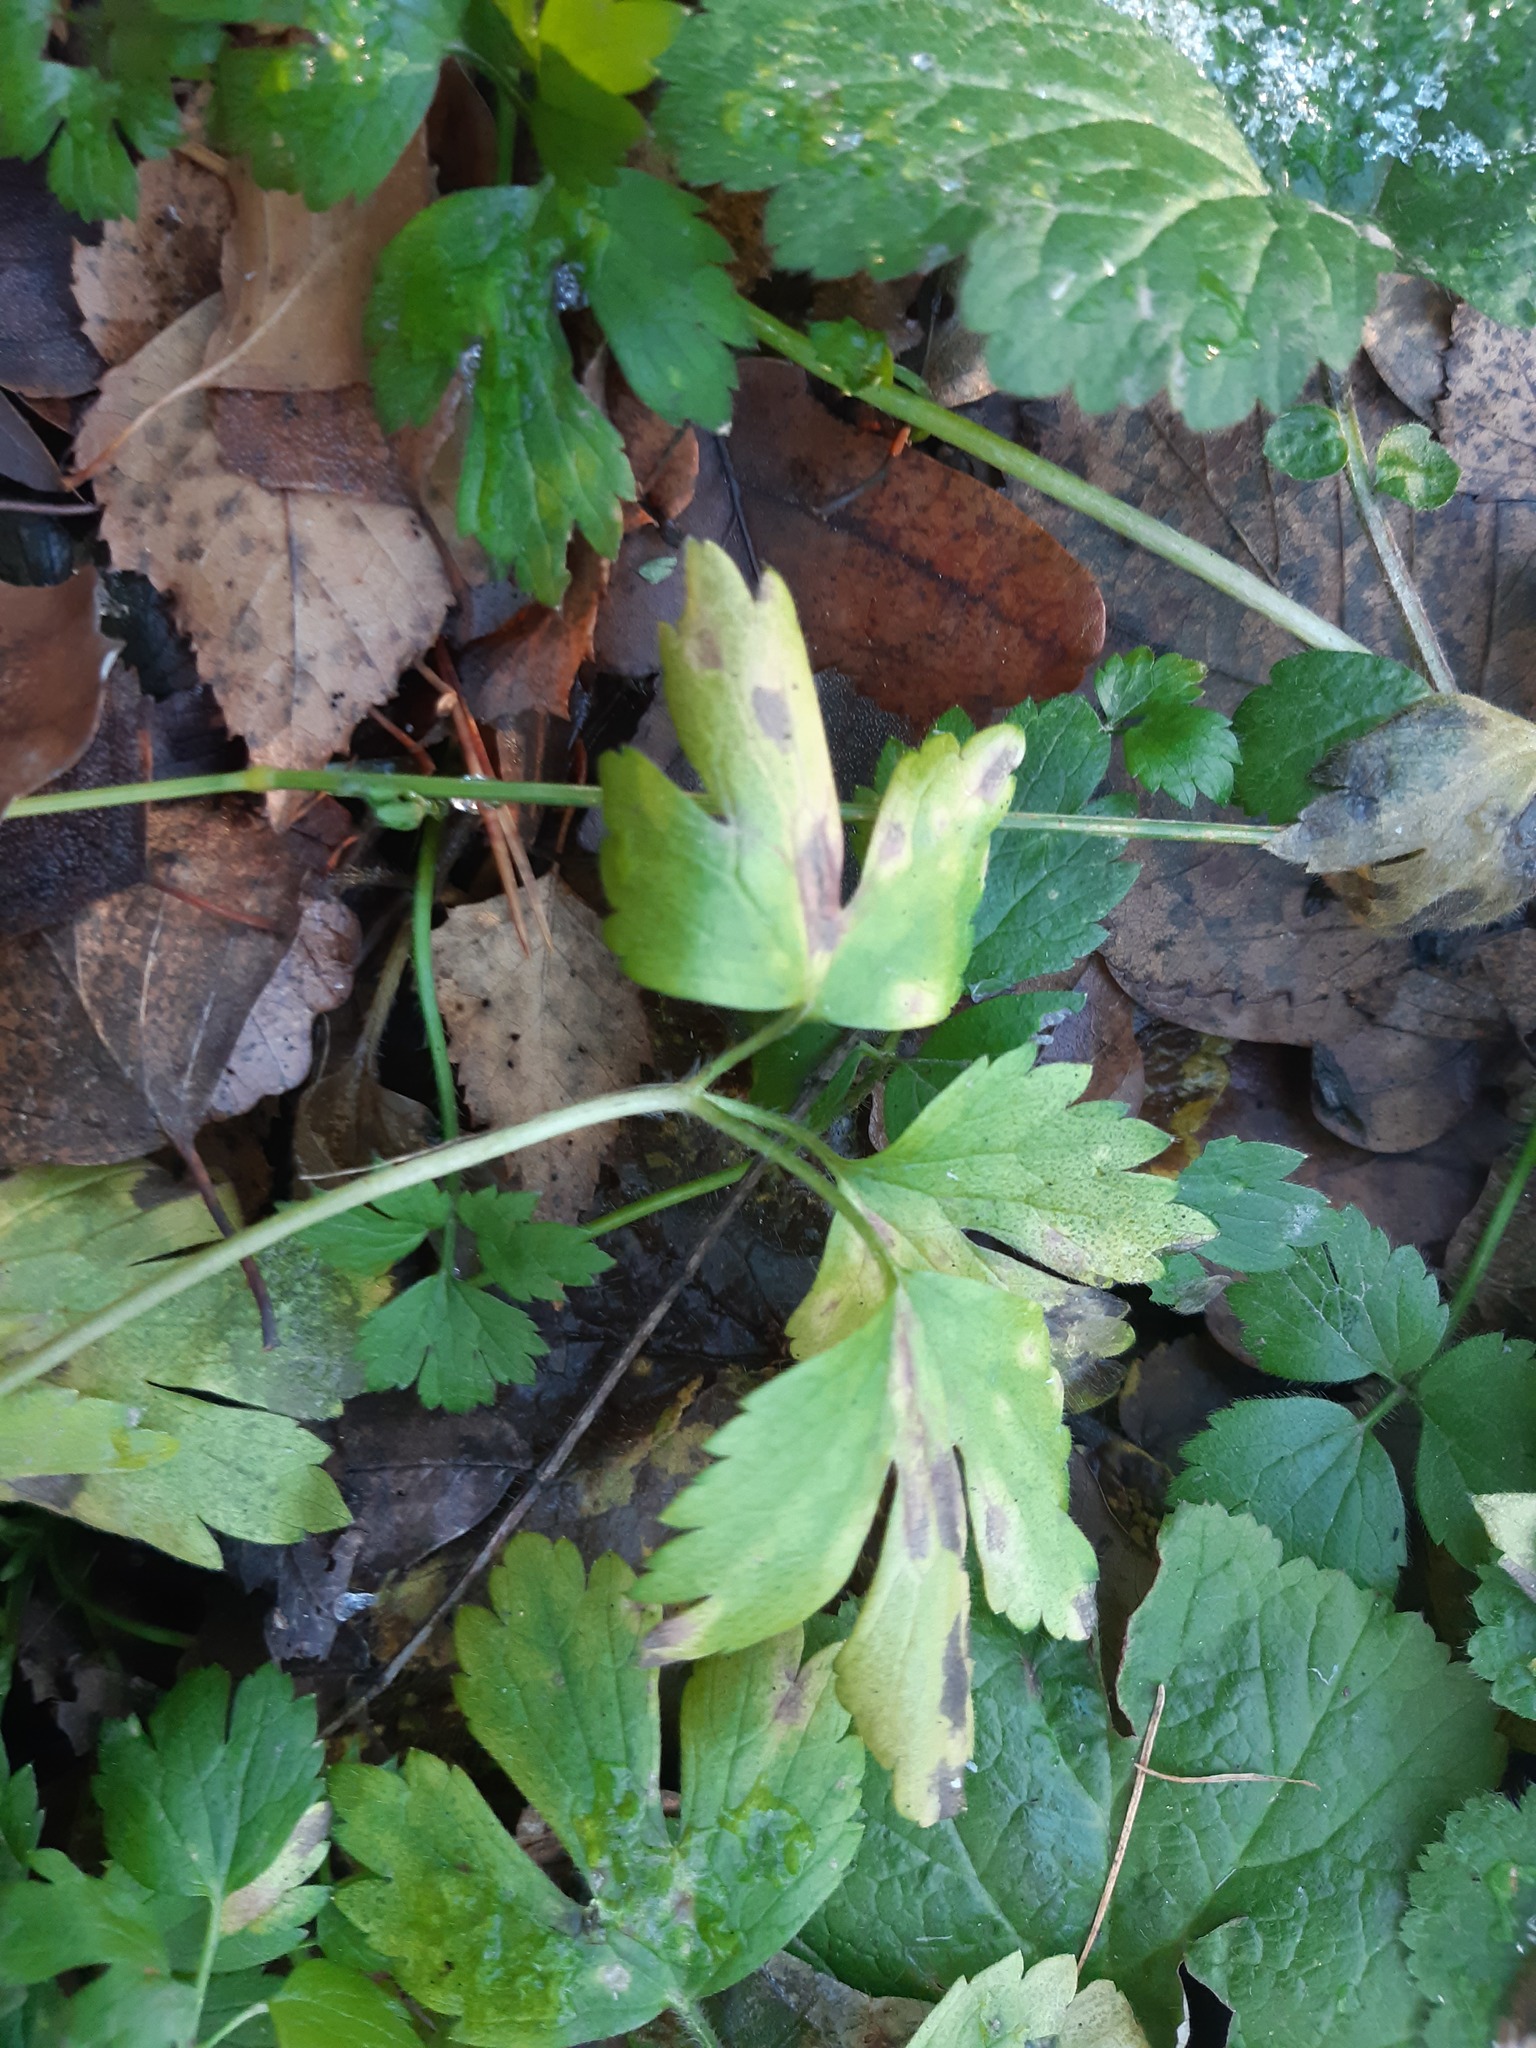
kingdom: Plantae
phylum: Tracheophyta
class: Magnoliopsida
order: Ranunculales
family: Ranunculaceae
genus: Ranunculus
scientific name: Ranunculus repens
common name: Creeping buttercup
